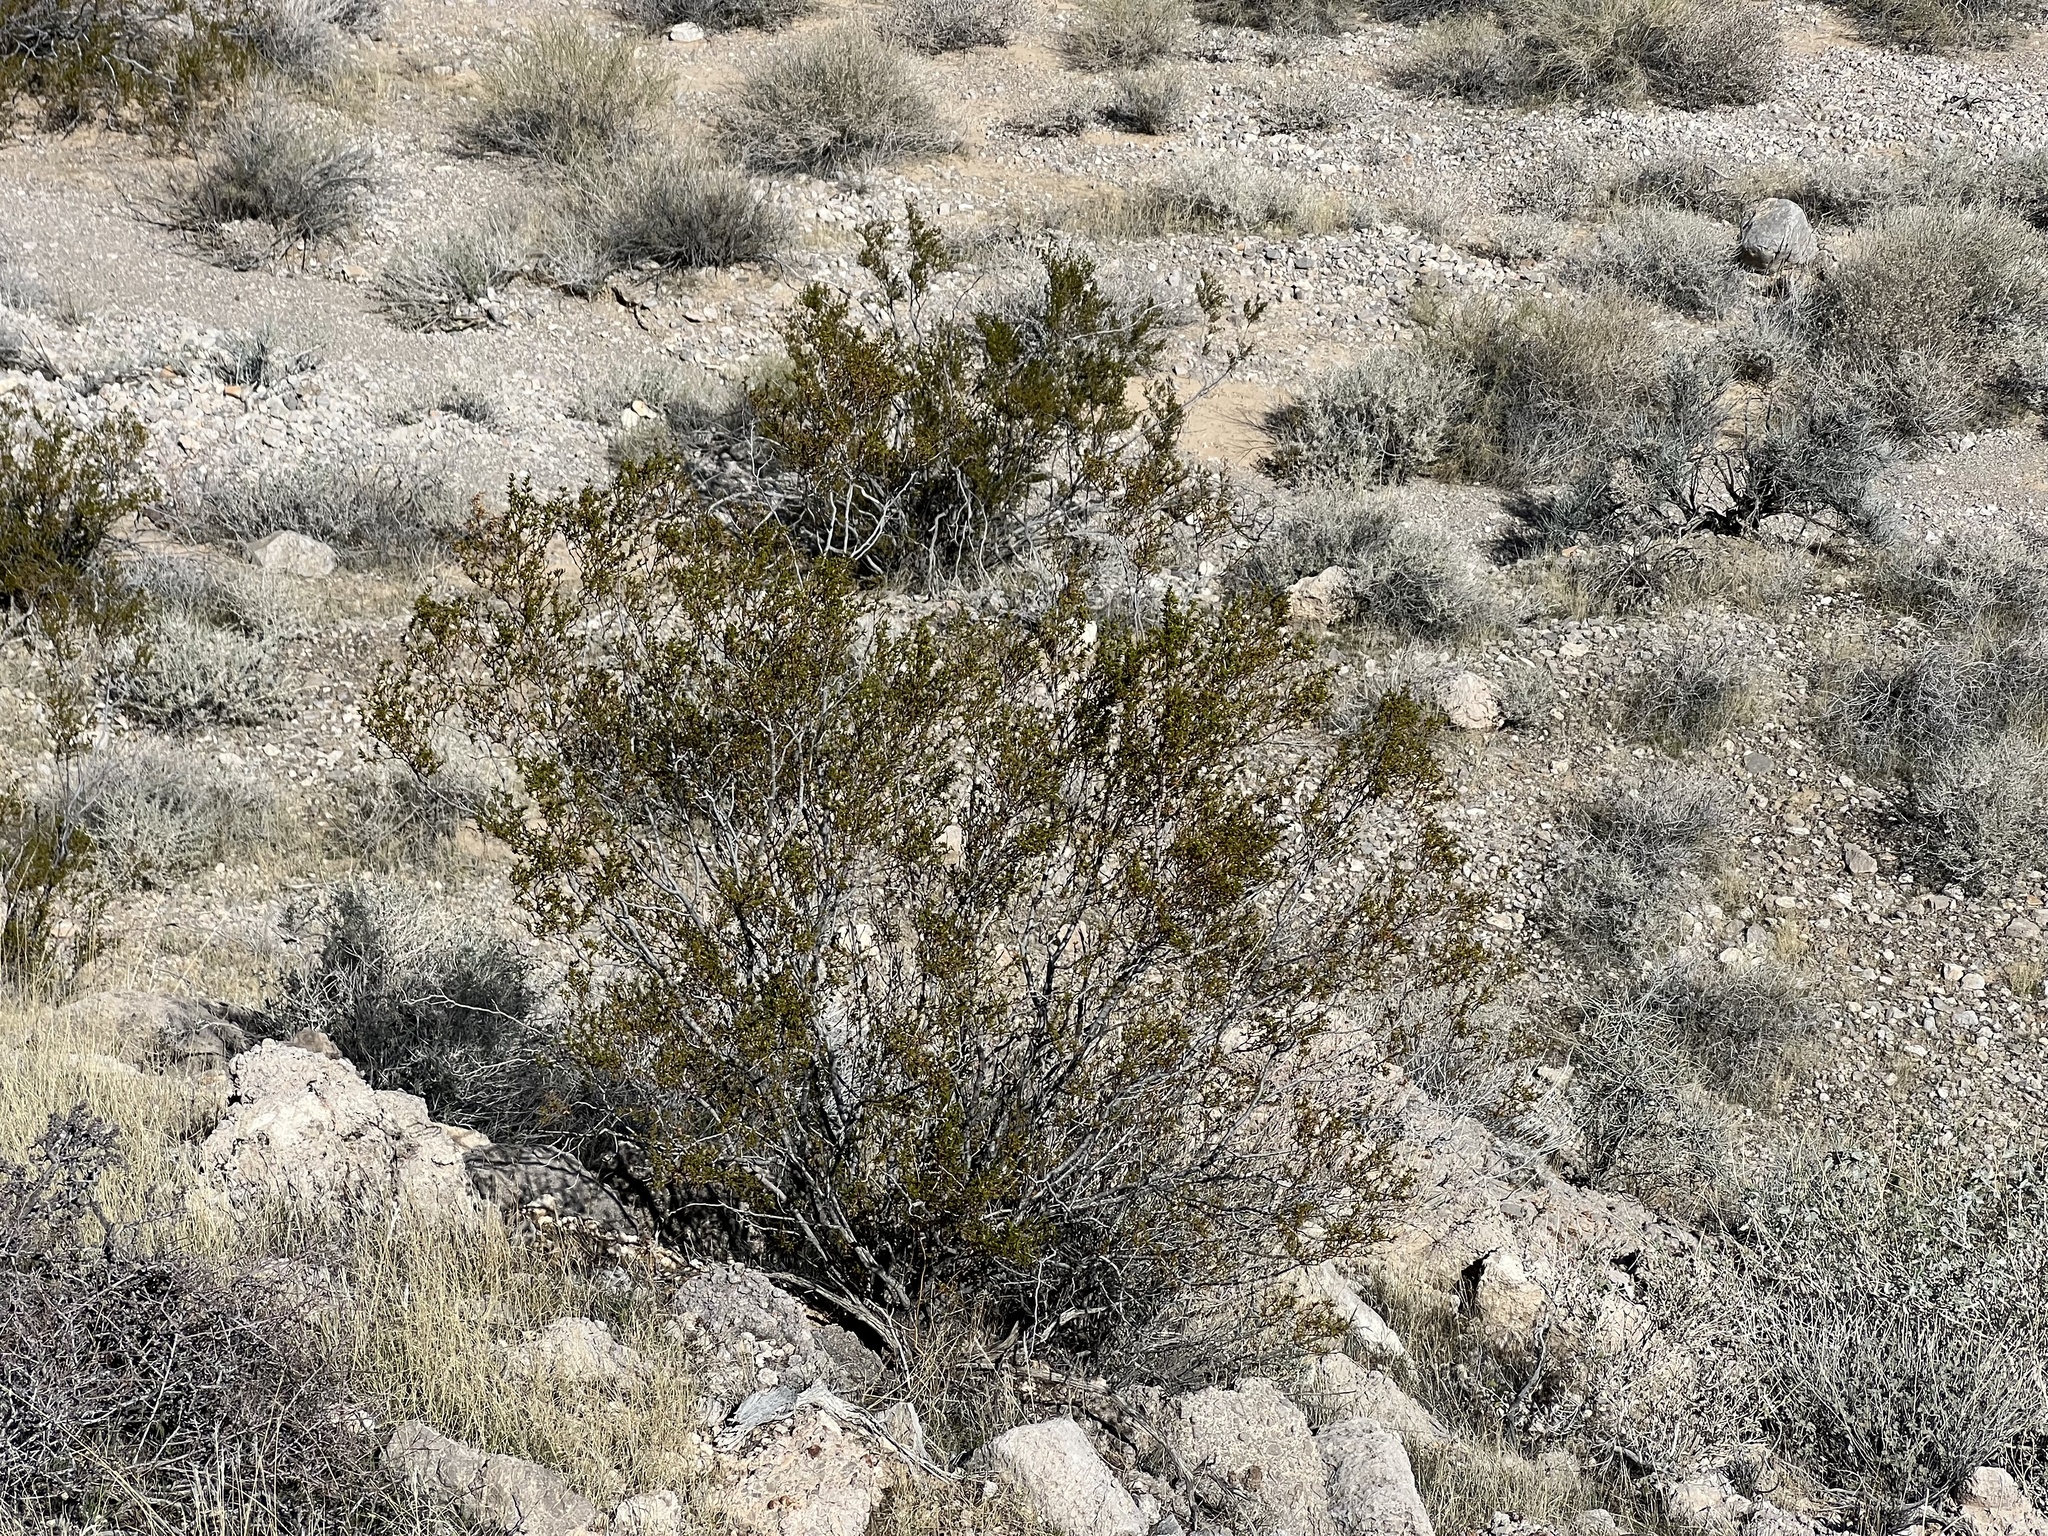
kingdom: Plantae
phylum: Tracheophyta
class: Magnoliopsida
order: Zygophyllales
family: Zygophyllaceae
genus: Larrea
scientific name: Larrea tridentata
